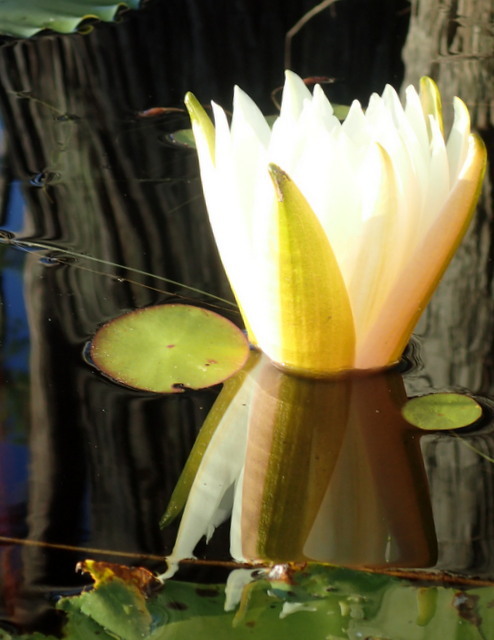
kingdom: Plantae
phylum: Tracheophyta
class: Magnoliopsida
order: Nymphaeales
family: Nymphaeaceae
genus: Nymphaea
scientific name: Nymphaea odorata
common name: Fragrant water-lily
